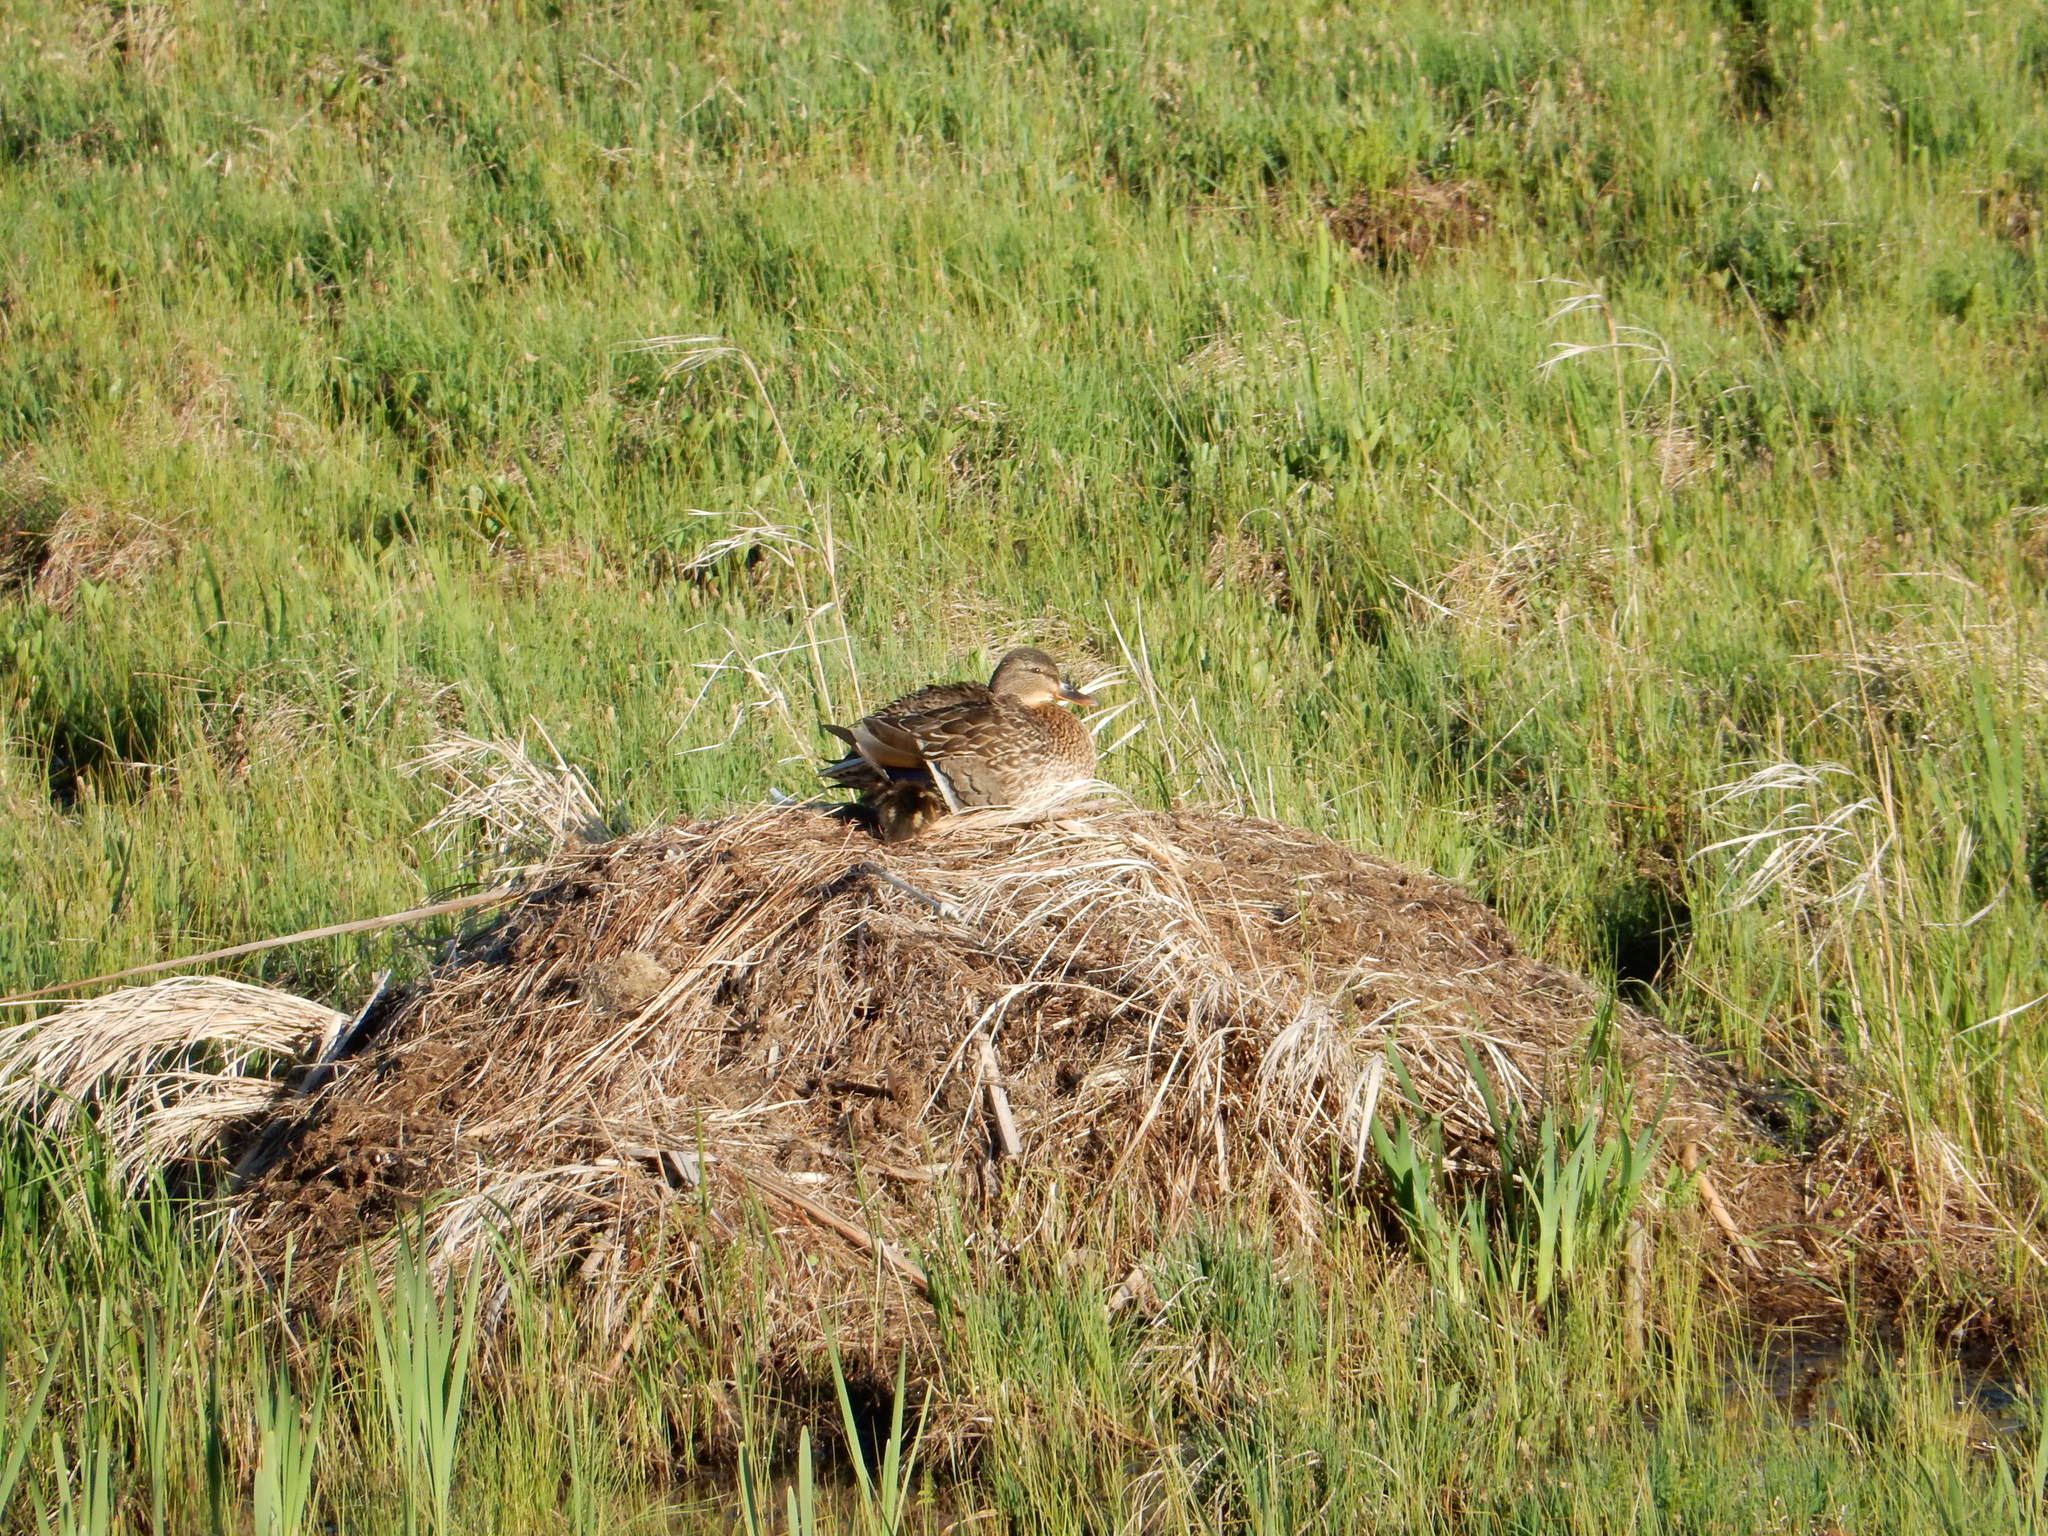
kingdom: Animalia
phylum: Chordata
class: Aves
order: Anseriformes
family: Anatidae
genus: Anas
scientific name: Anas platyrhynchos
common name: Mallard
